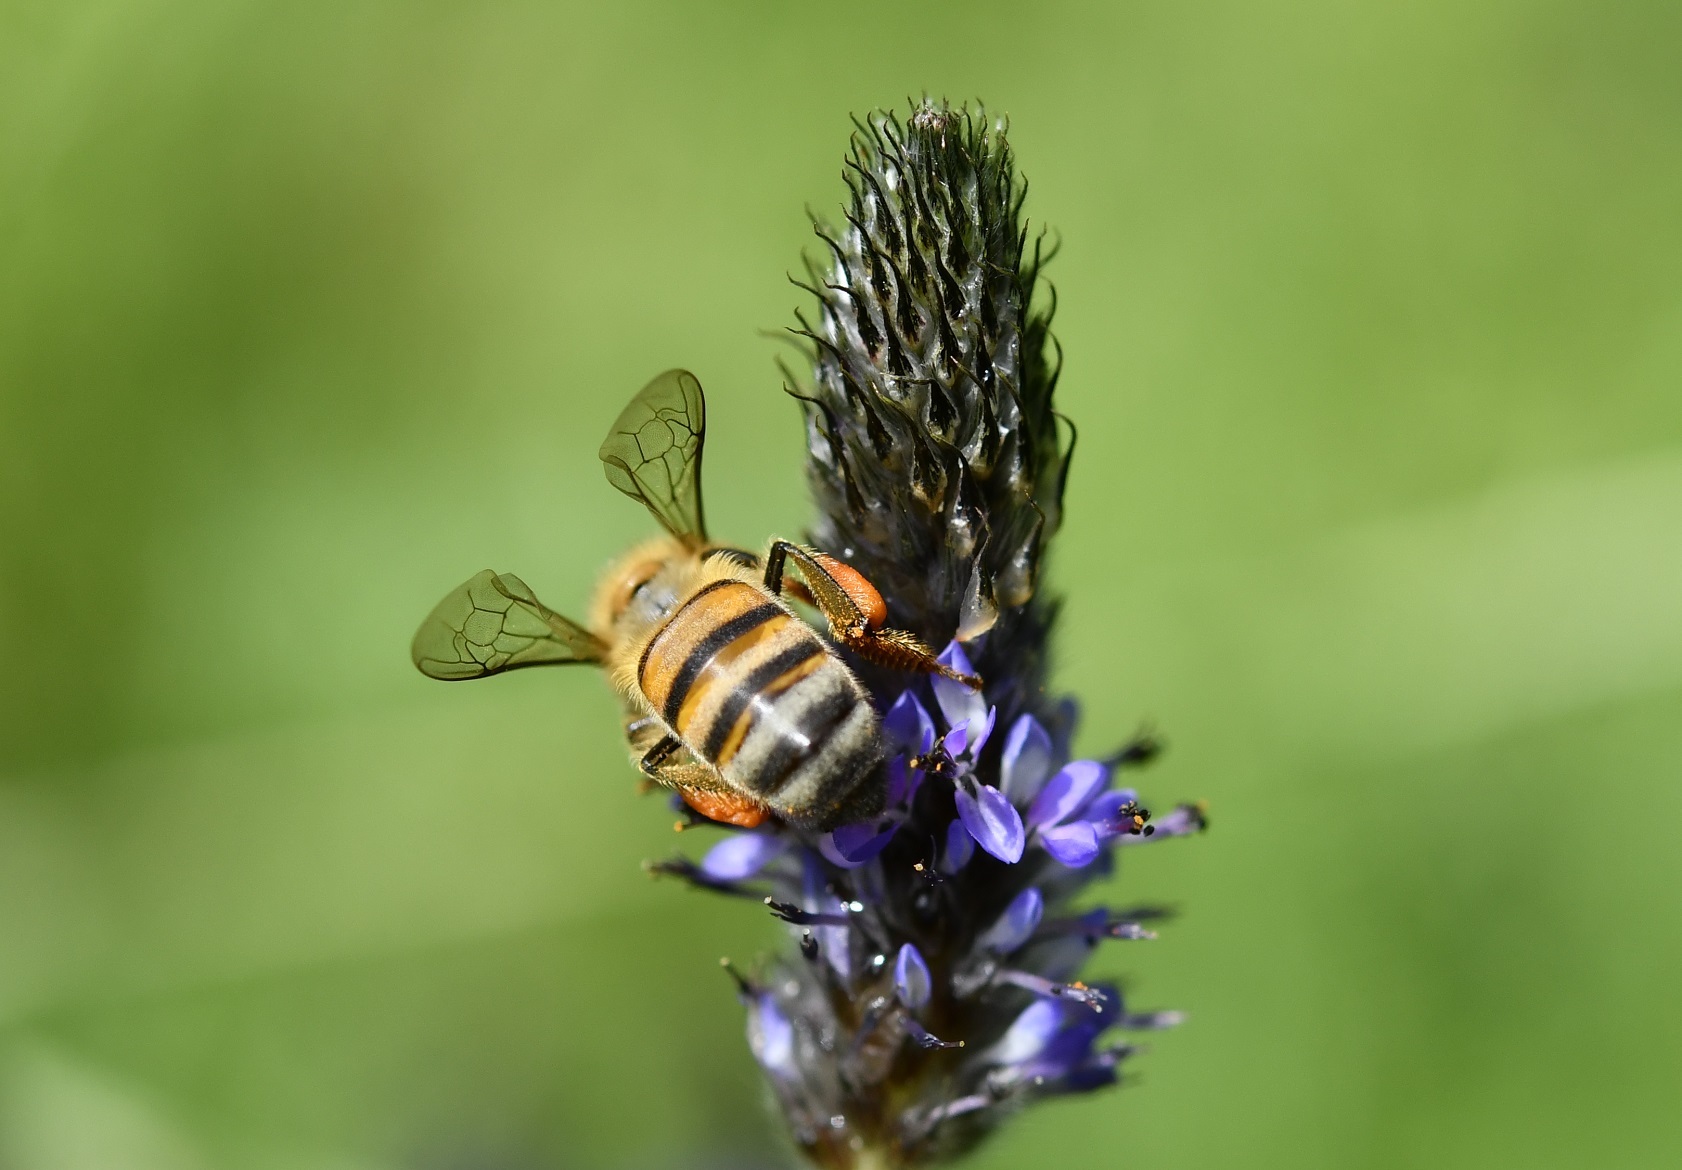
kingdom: Animalia
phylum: Arthropoda
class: Insecta
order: Hymenoptera
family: Apidae
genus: Apis
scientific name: Apis mellifera
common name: Honey bee
